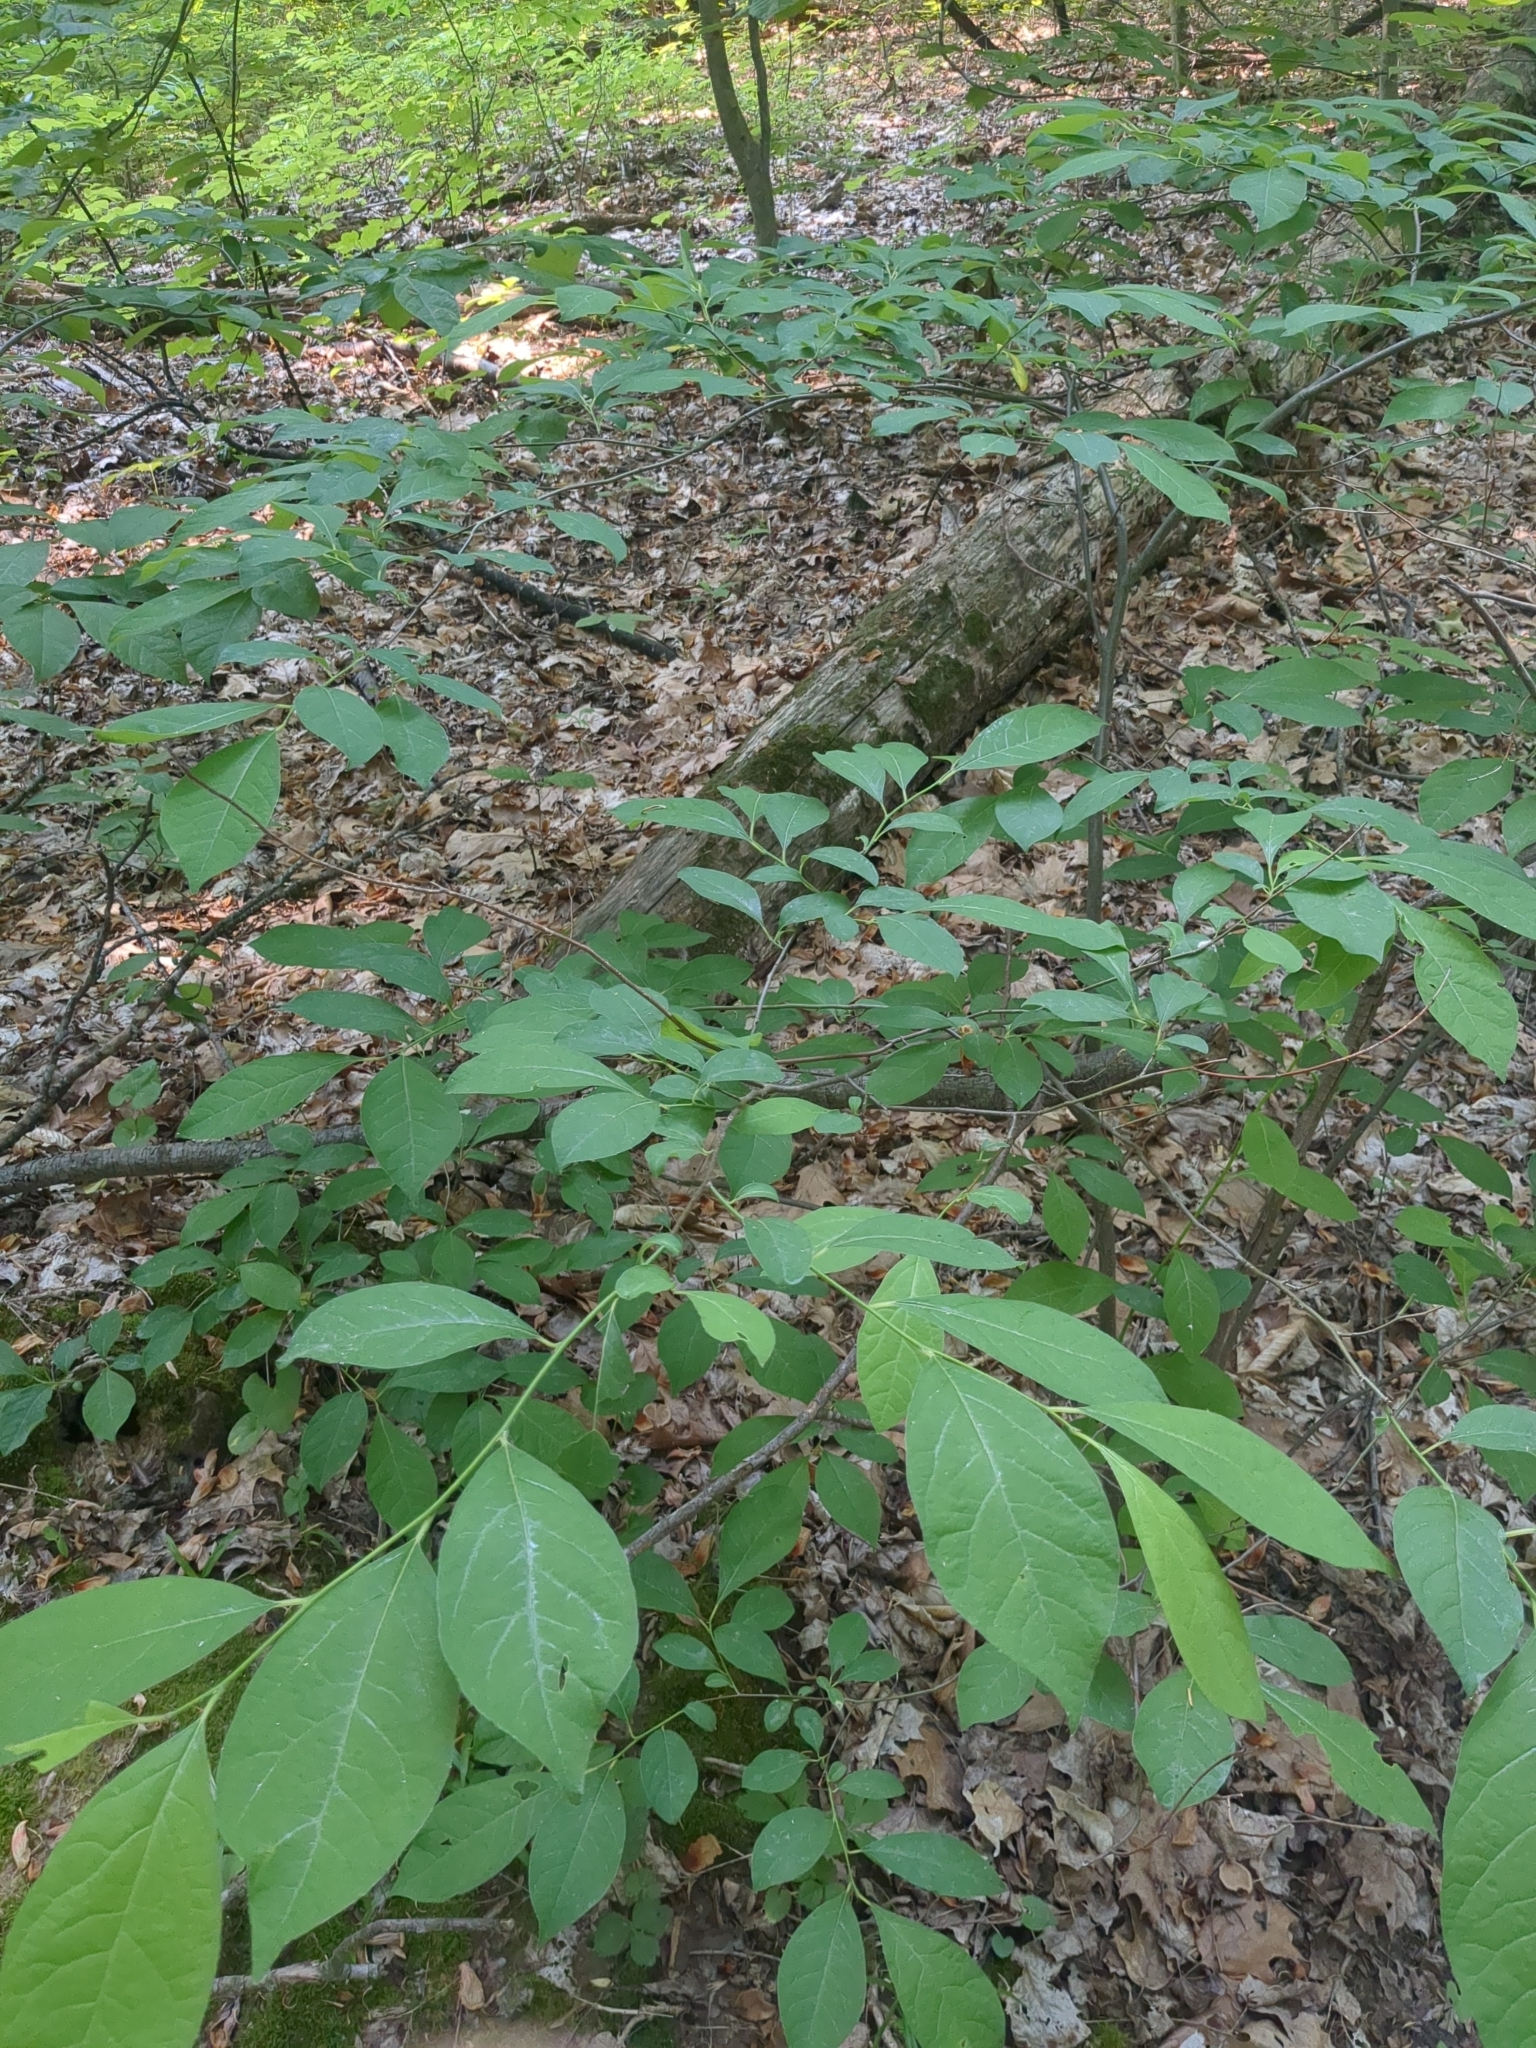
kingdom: Plantae
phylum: Tracheophyta
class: Magnoliopsida
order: Laurales
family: Lauraceae
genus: Lindera
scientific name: Lindera benzoin
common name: Spicebush
